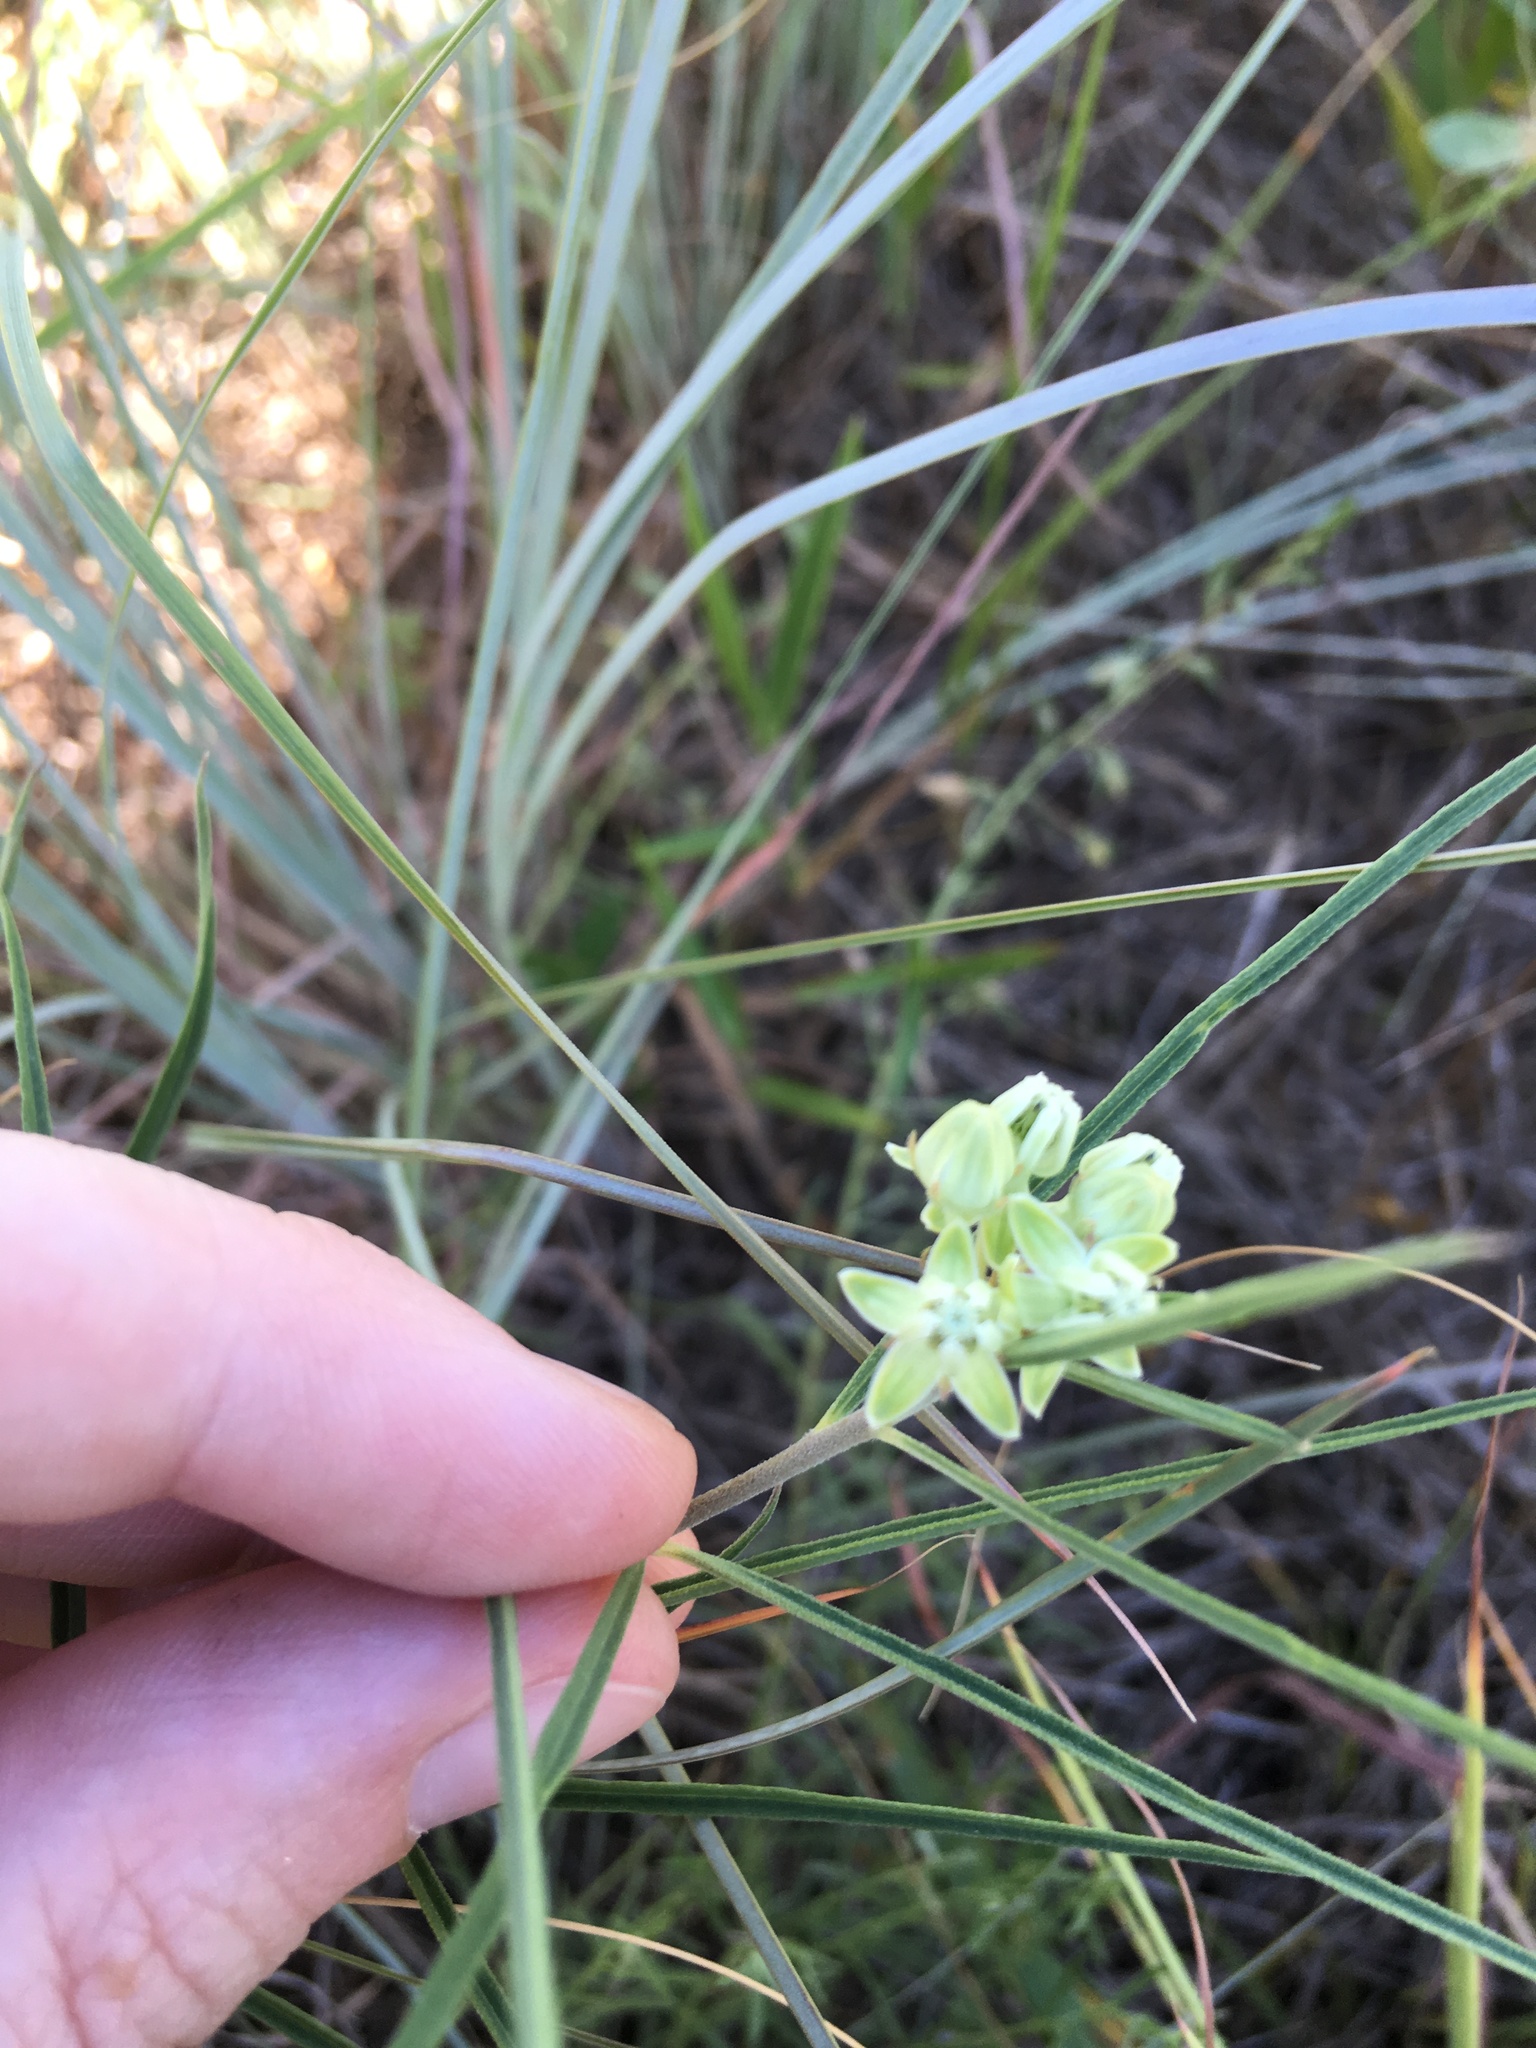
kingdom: Plantae
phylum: Tracheophyta
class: Magnoliopsida
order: Gentianales
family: Apocynaceae
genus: Asclepias
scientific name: Asclepias stenophylla
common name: Narrow-leaf milkweed
